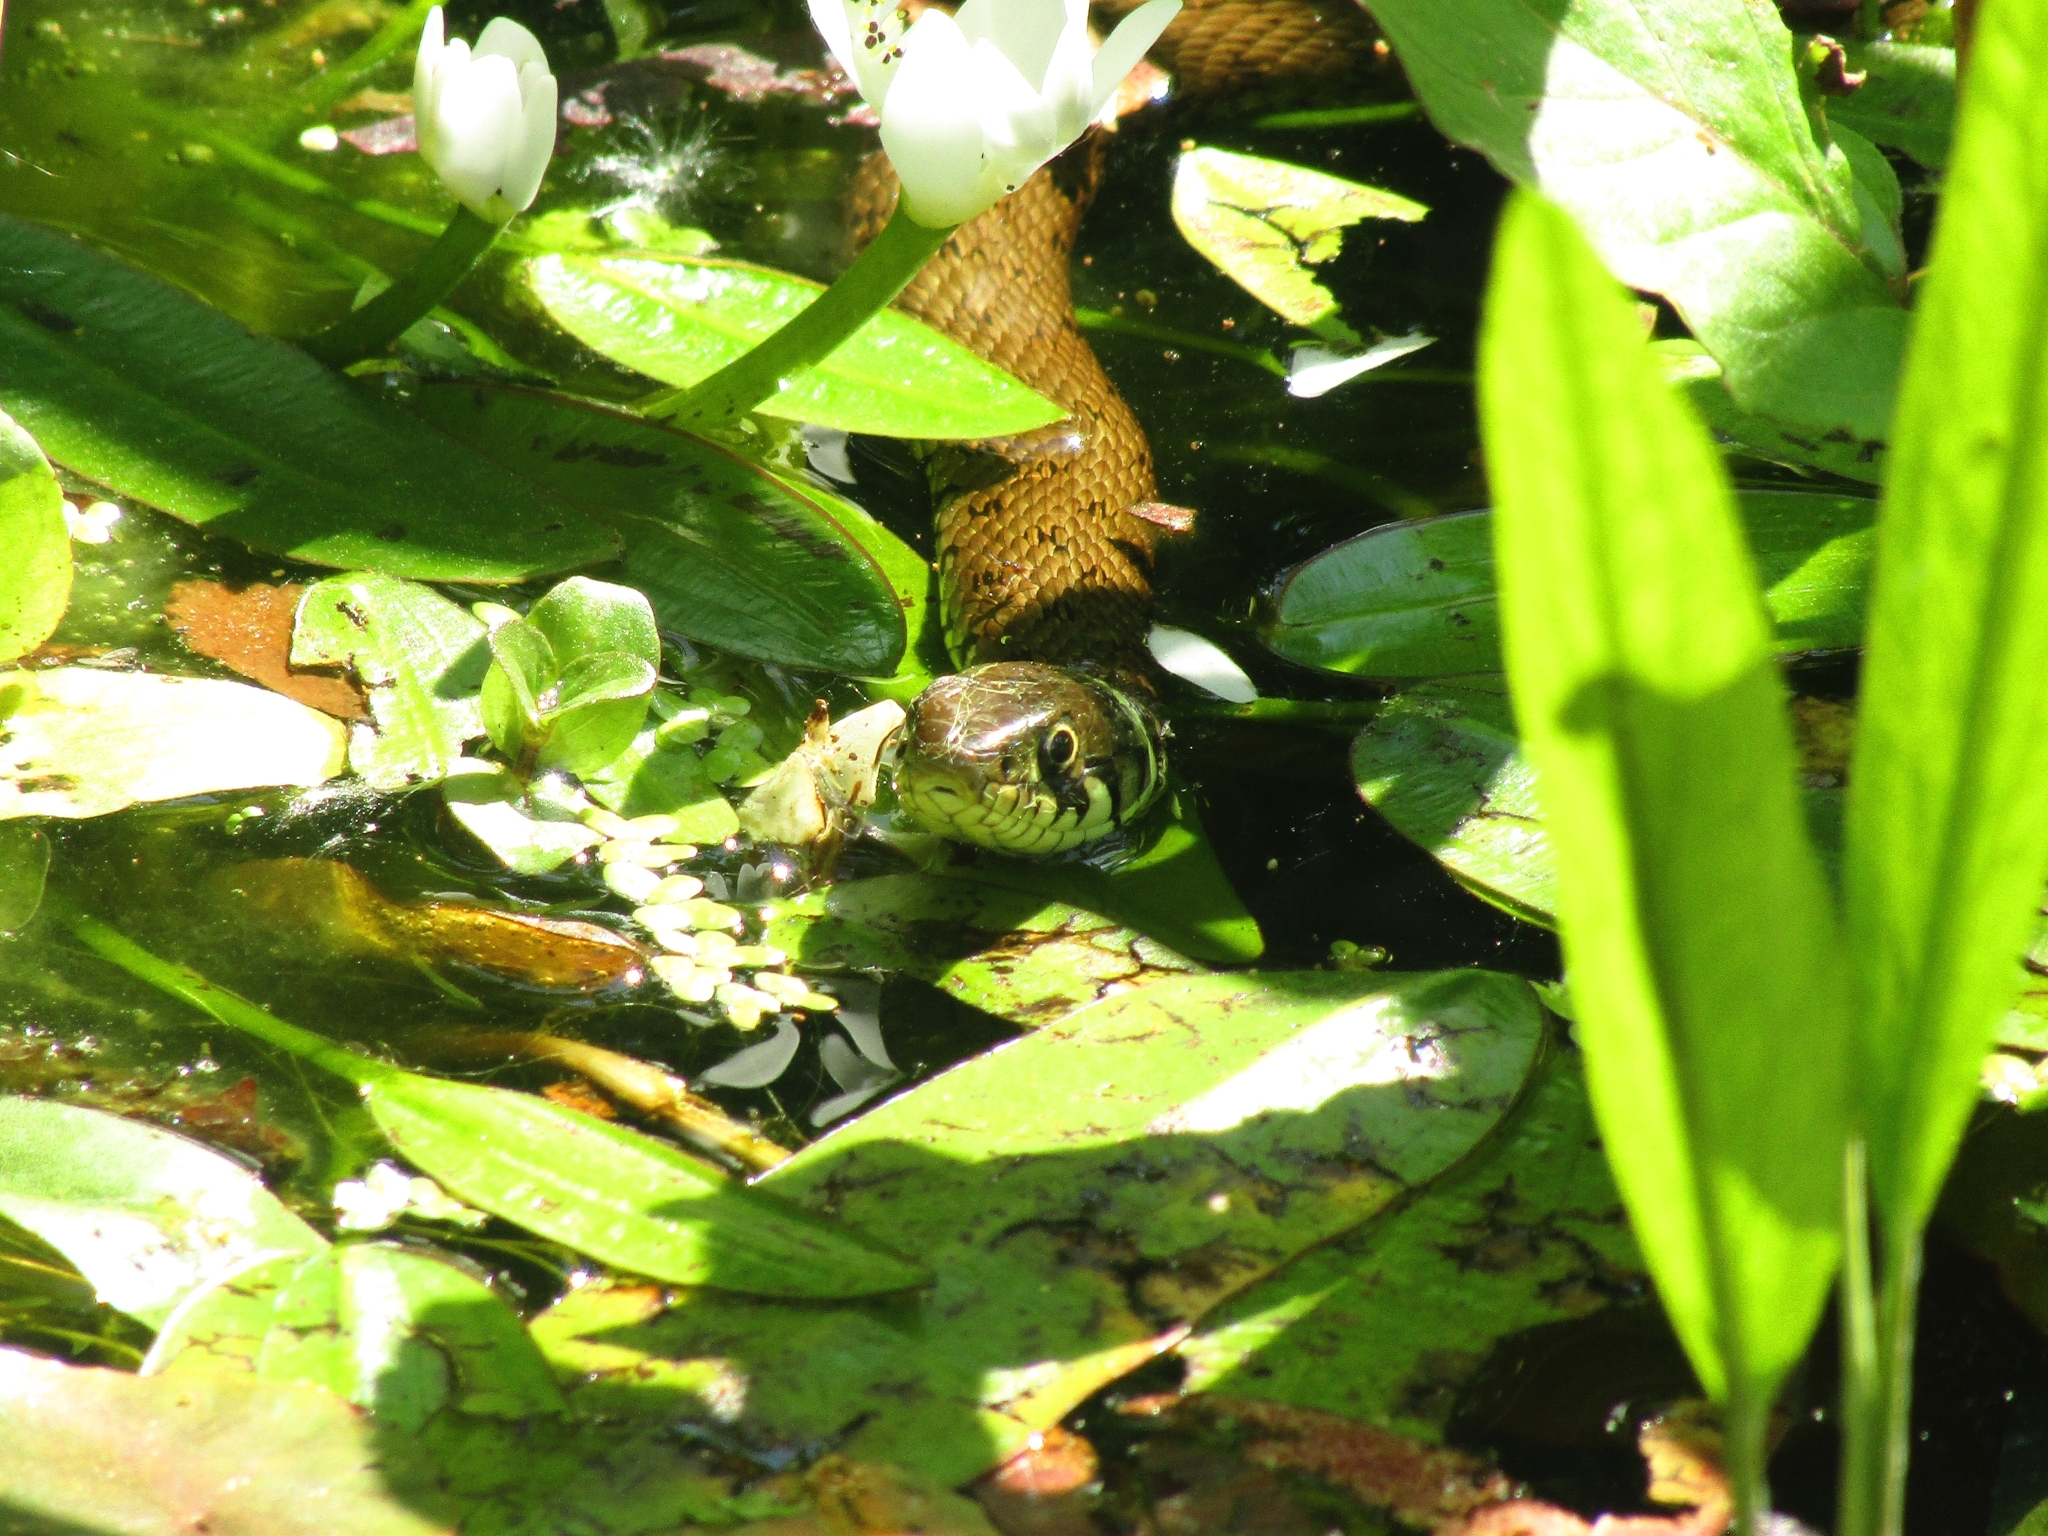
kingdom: Animalia
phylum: Chordata
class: Squamata
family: Colubridae
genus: Natrix
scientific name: Natrix helvetica
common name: Banded grass snake
